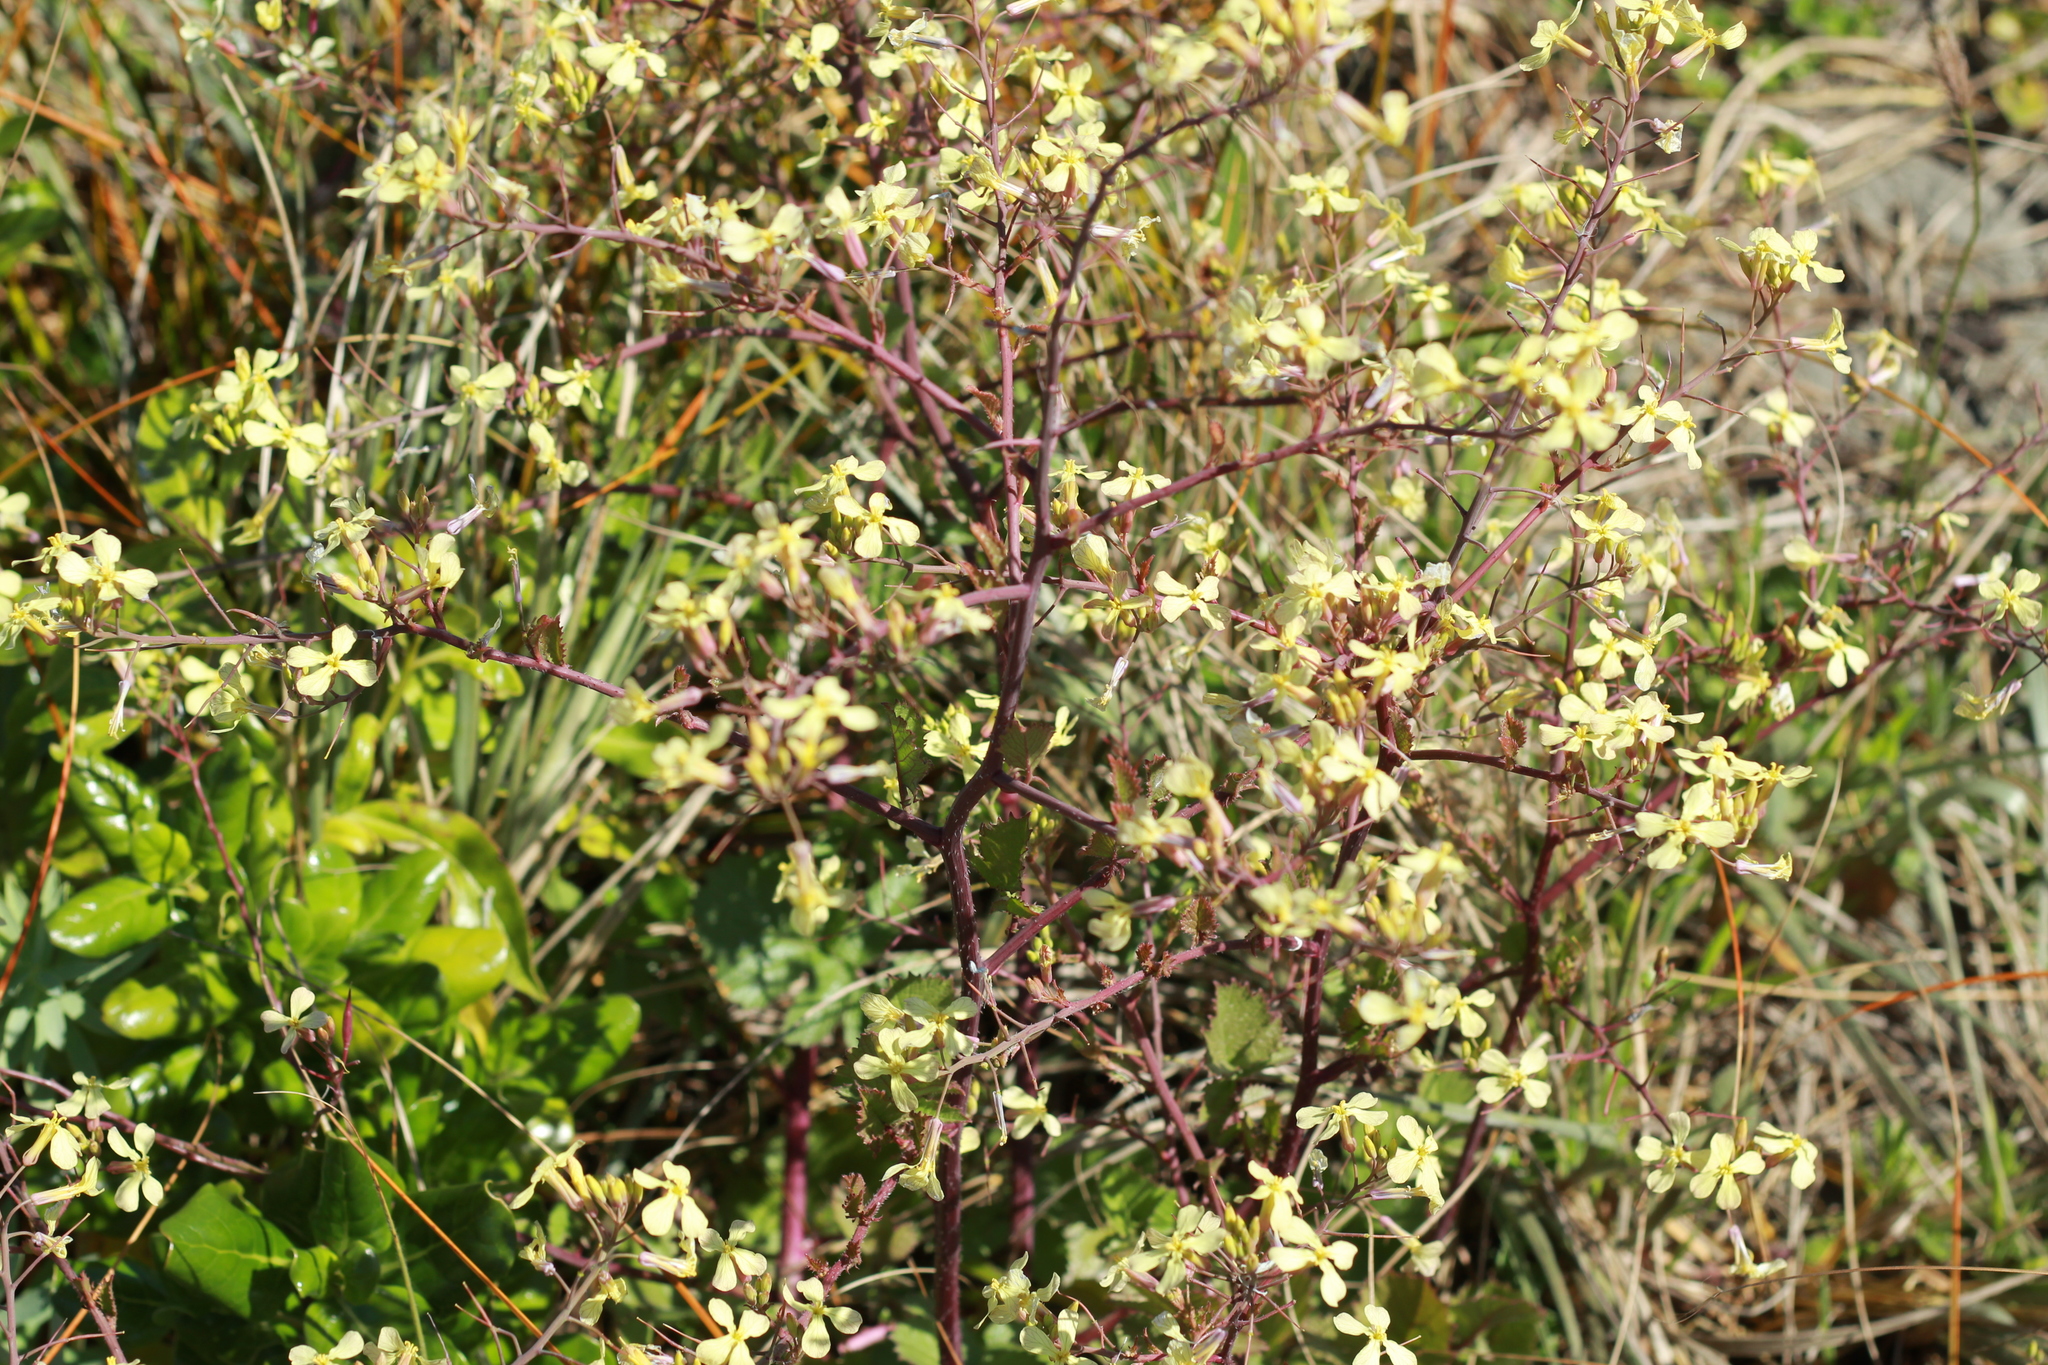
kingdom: Plantae
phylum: Tracheophyta
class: Magnoliopsida
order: Brassicales
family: Brassicaceae
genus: Raphanus
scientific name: Raphanus raphanistrum
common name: Wild radish
